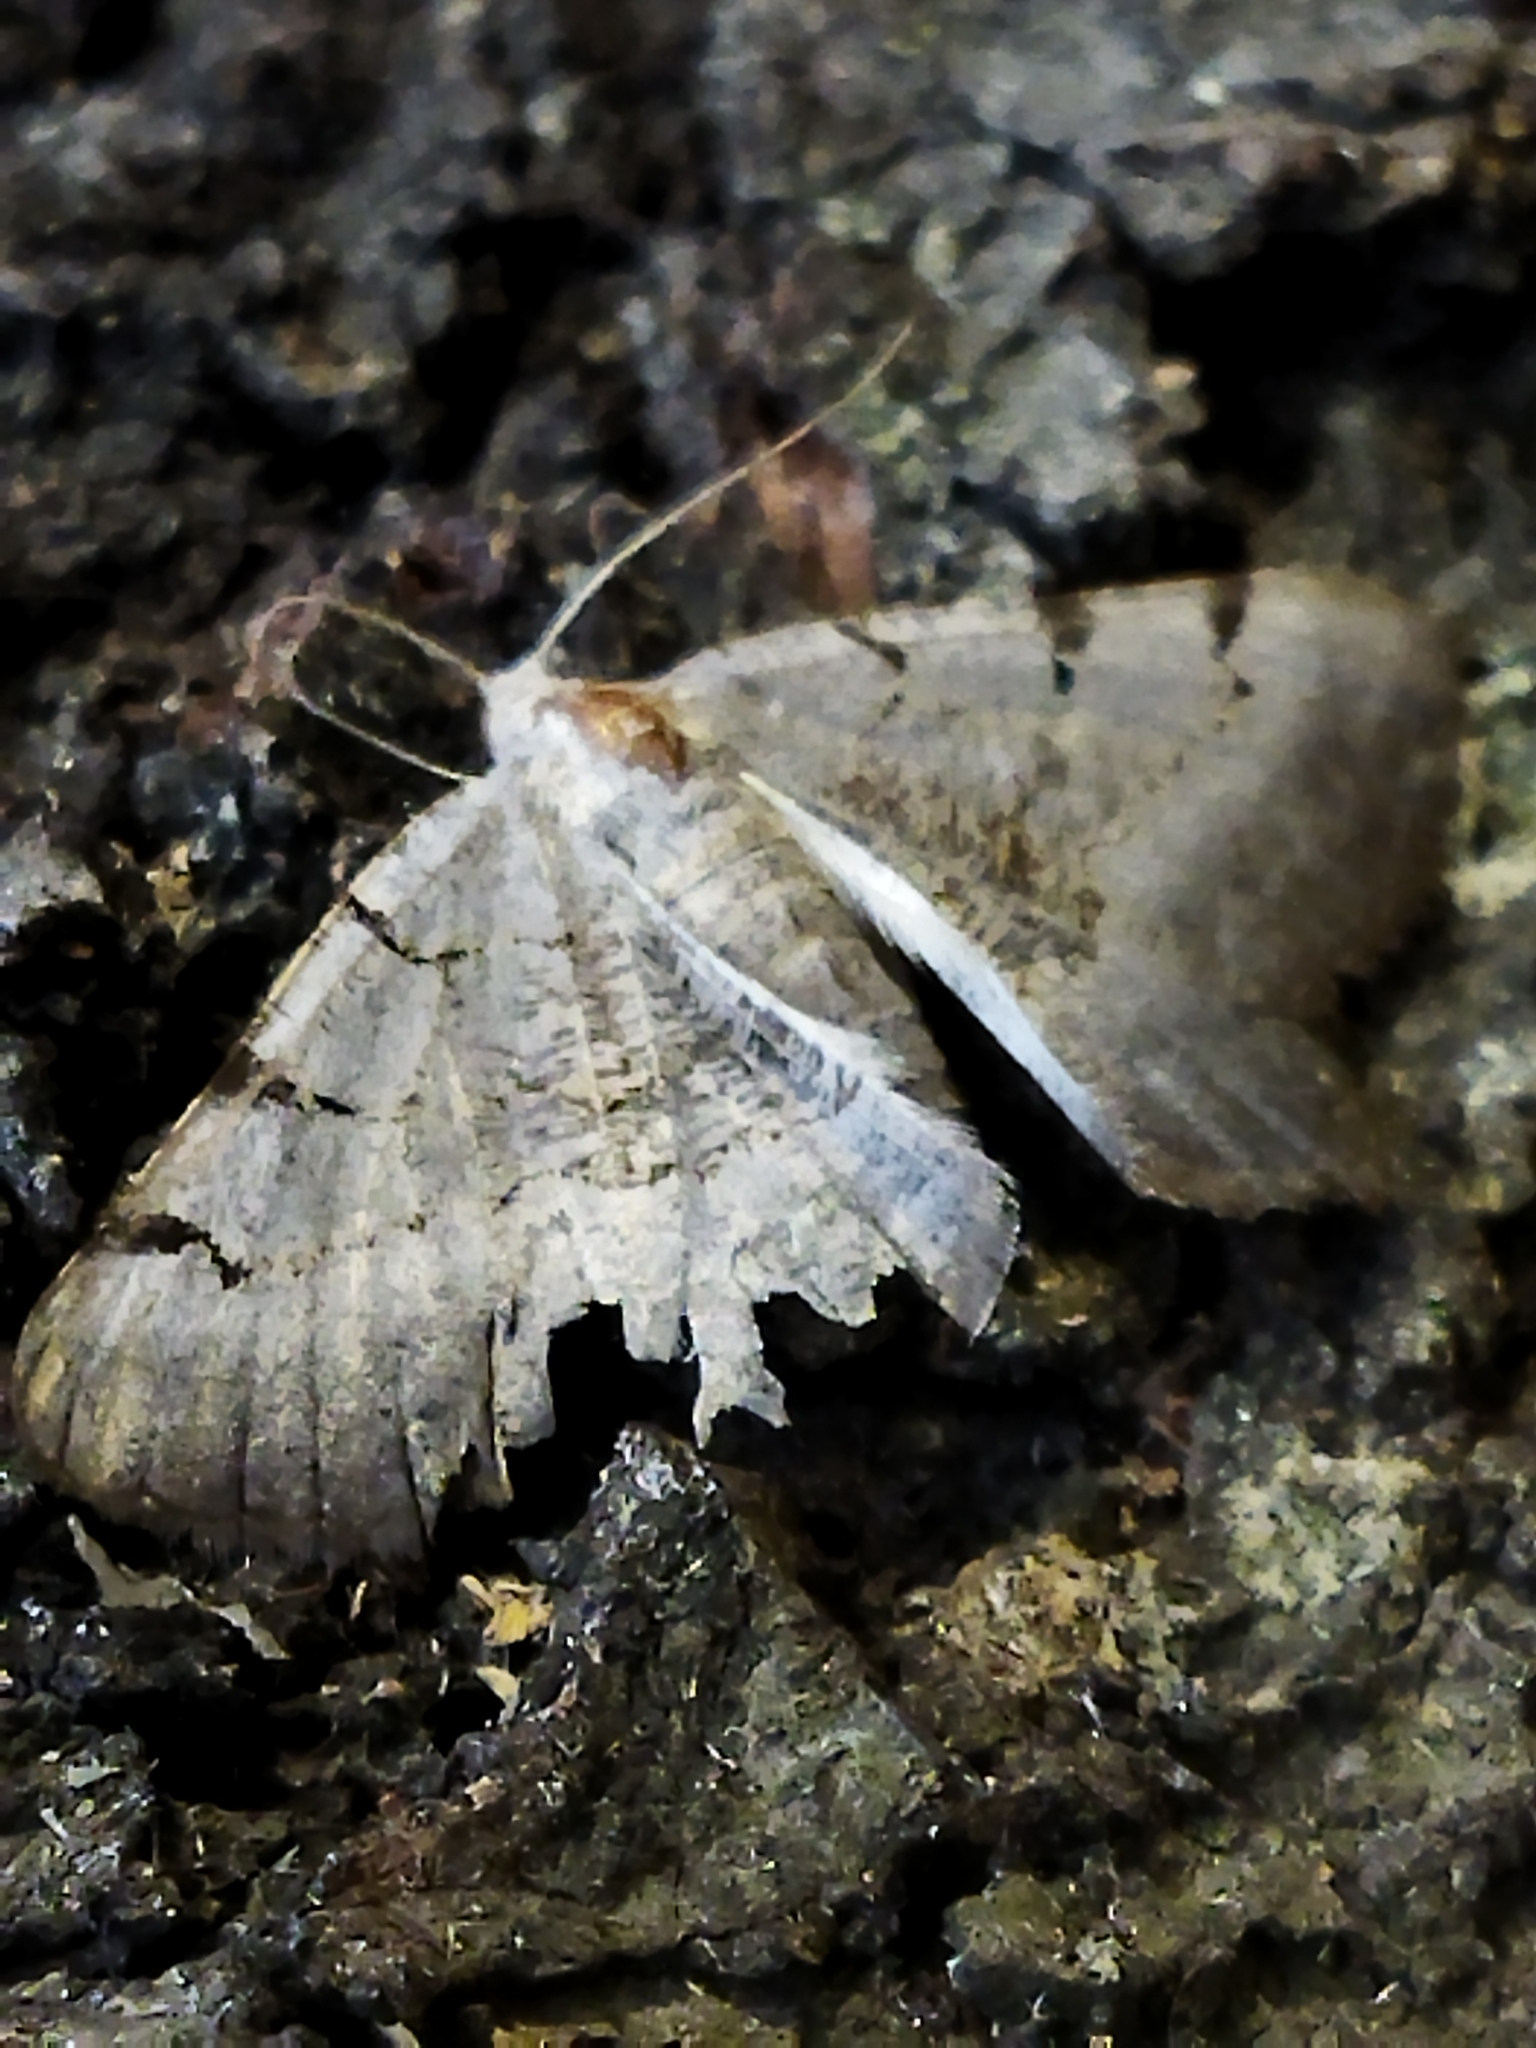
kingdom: Animalia
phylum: Arthropoda
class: Insecta
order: Lepidoptera
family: Geometridae
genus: Neognopharmia
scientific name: Neognopharmia stevenaria
